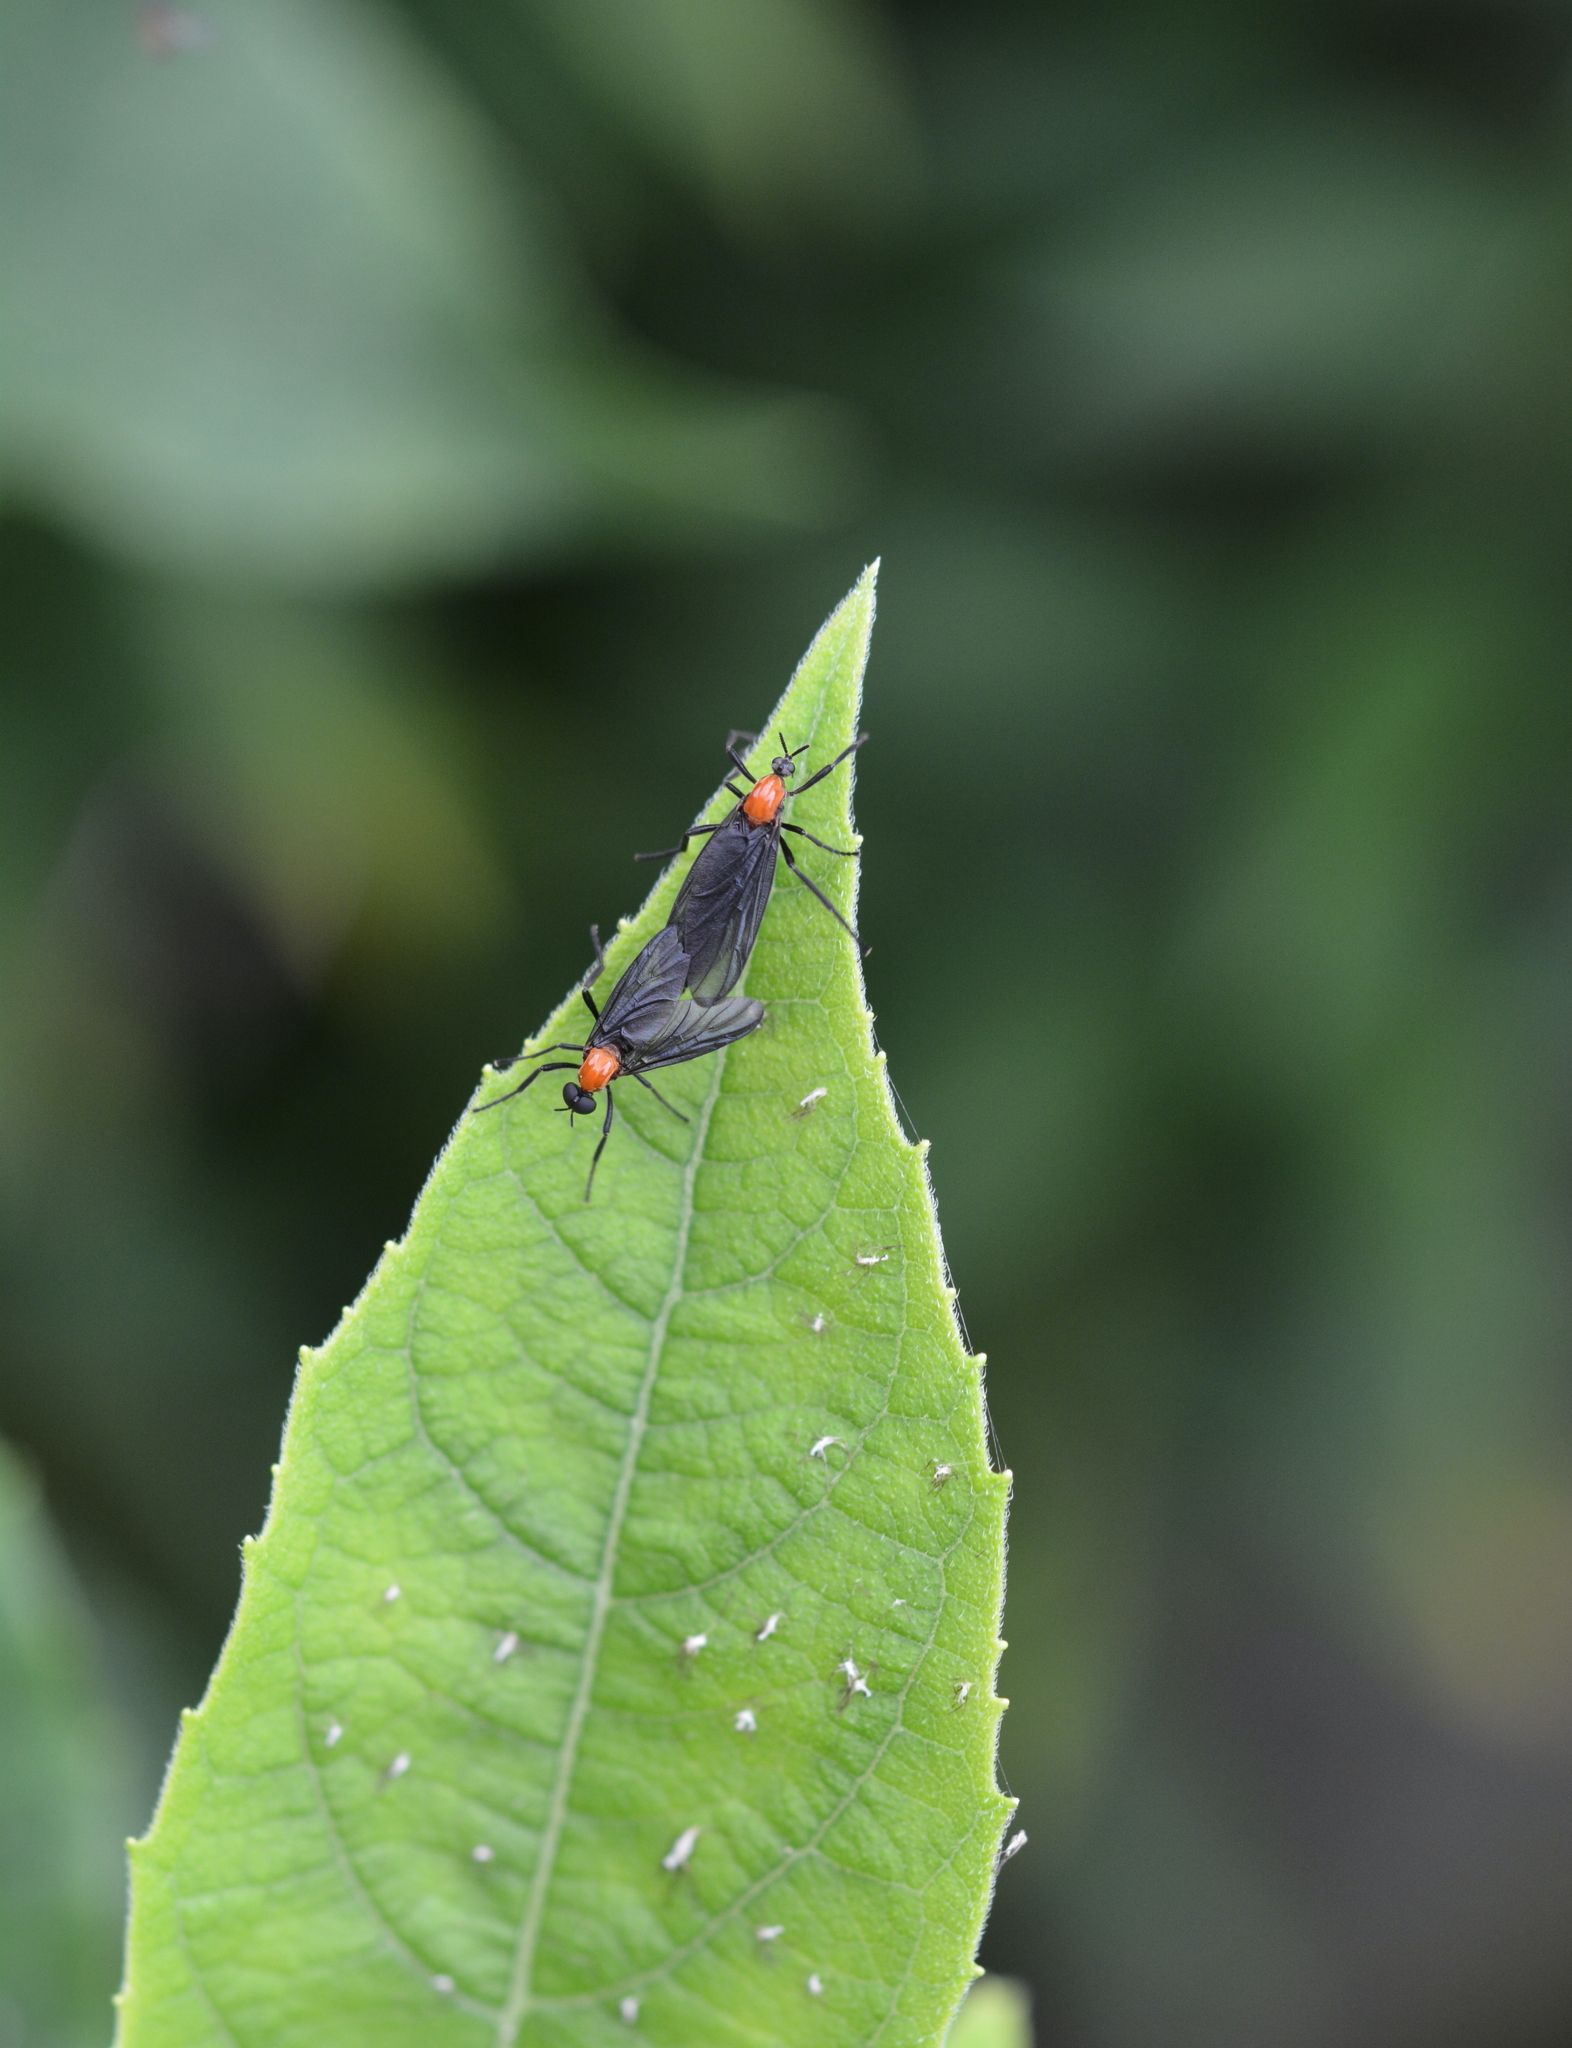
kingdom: Animalia
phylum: Arthropoda
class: Insecta
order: Diptera
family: Bibionidae
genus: Plecia
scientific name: Plecia nearctica
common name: March fly
